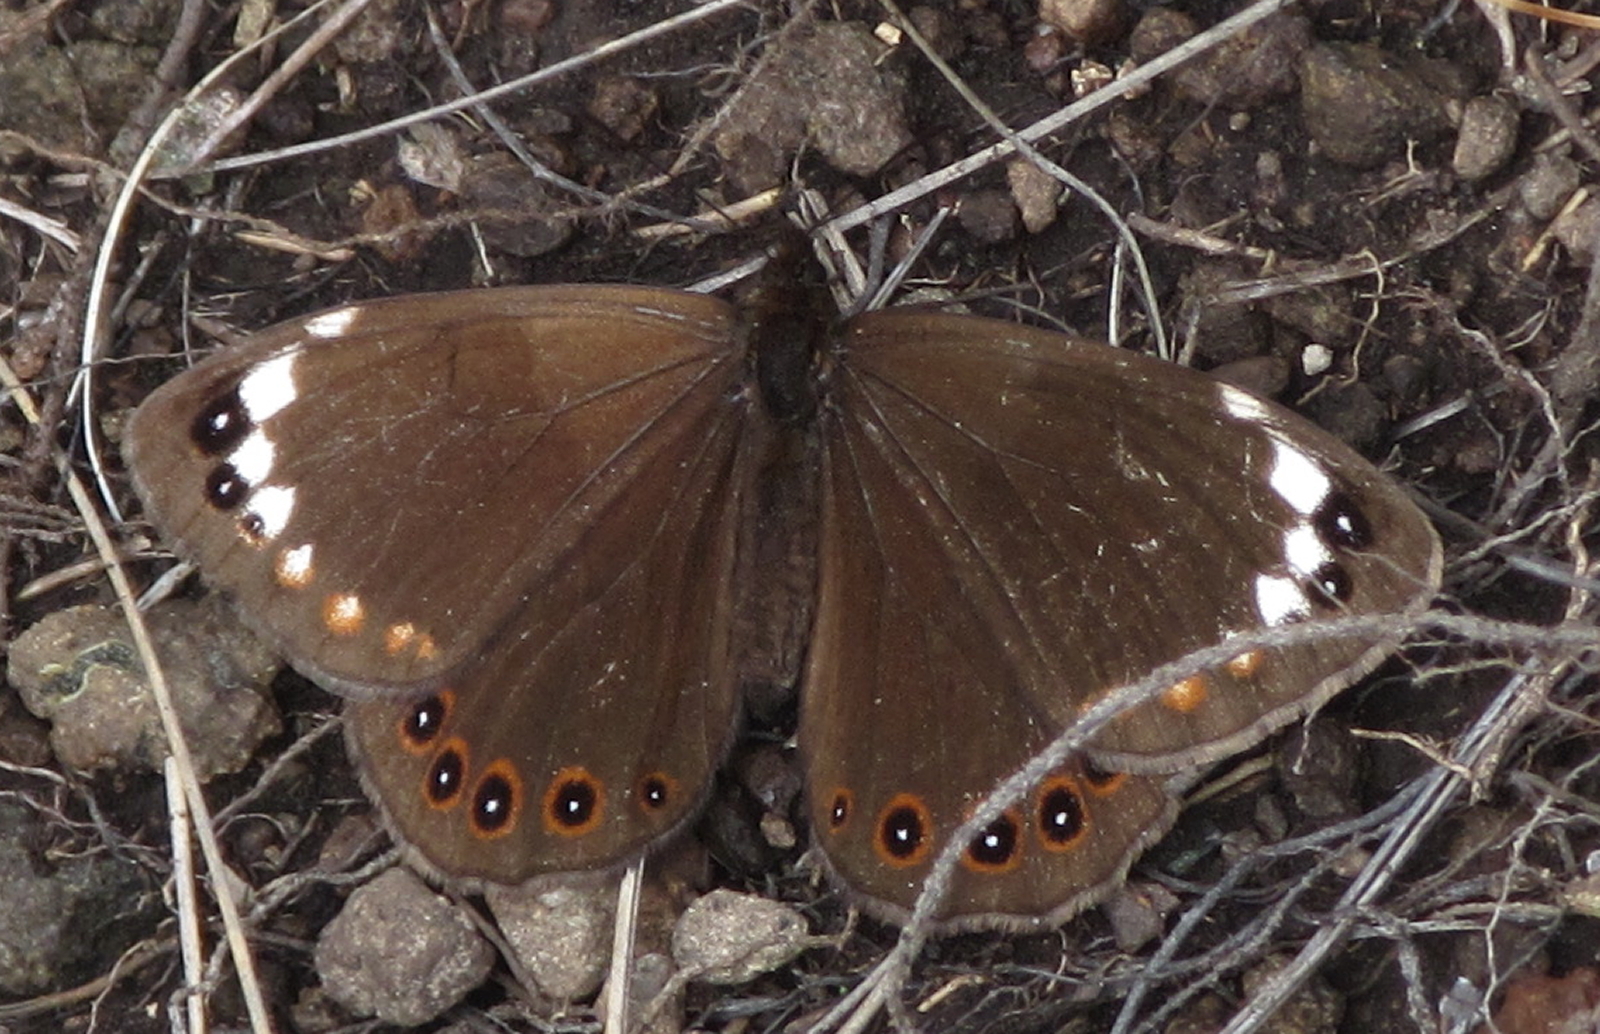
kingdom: Animalia
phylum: Arthropoda
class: Insecta
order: Lepidoptera
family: Nymphalidae
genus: Serradinga
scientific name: Serradinga
